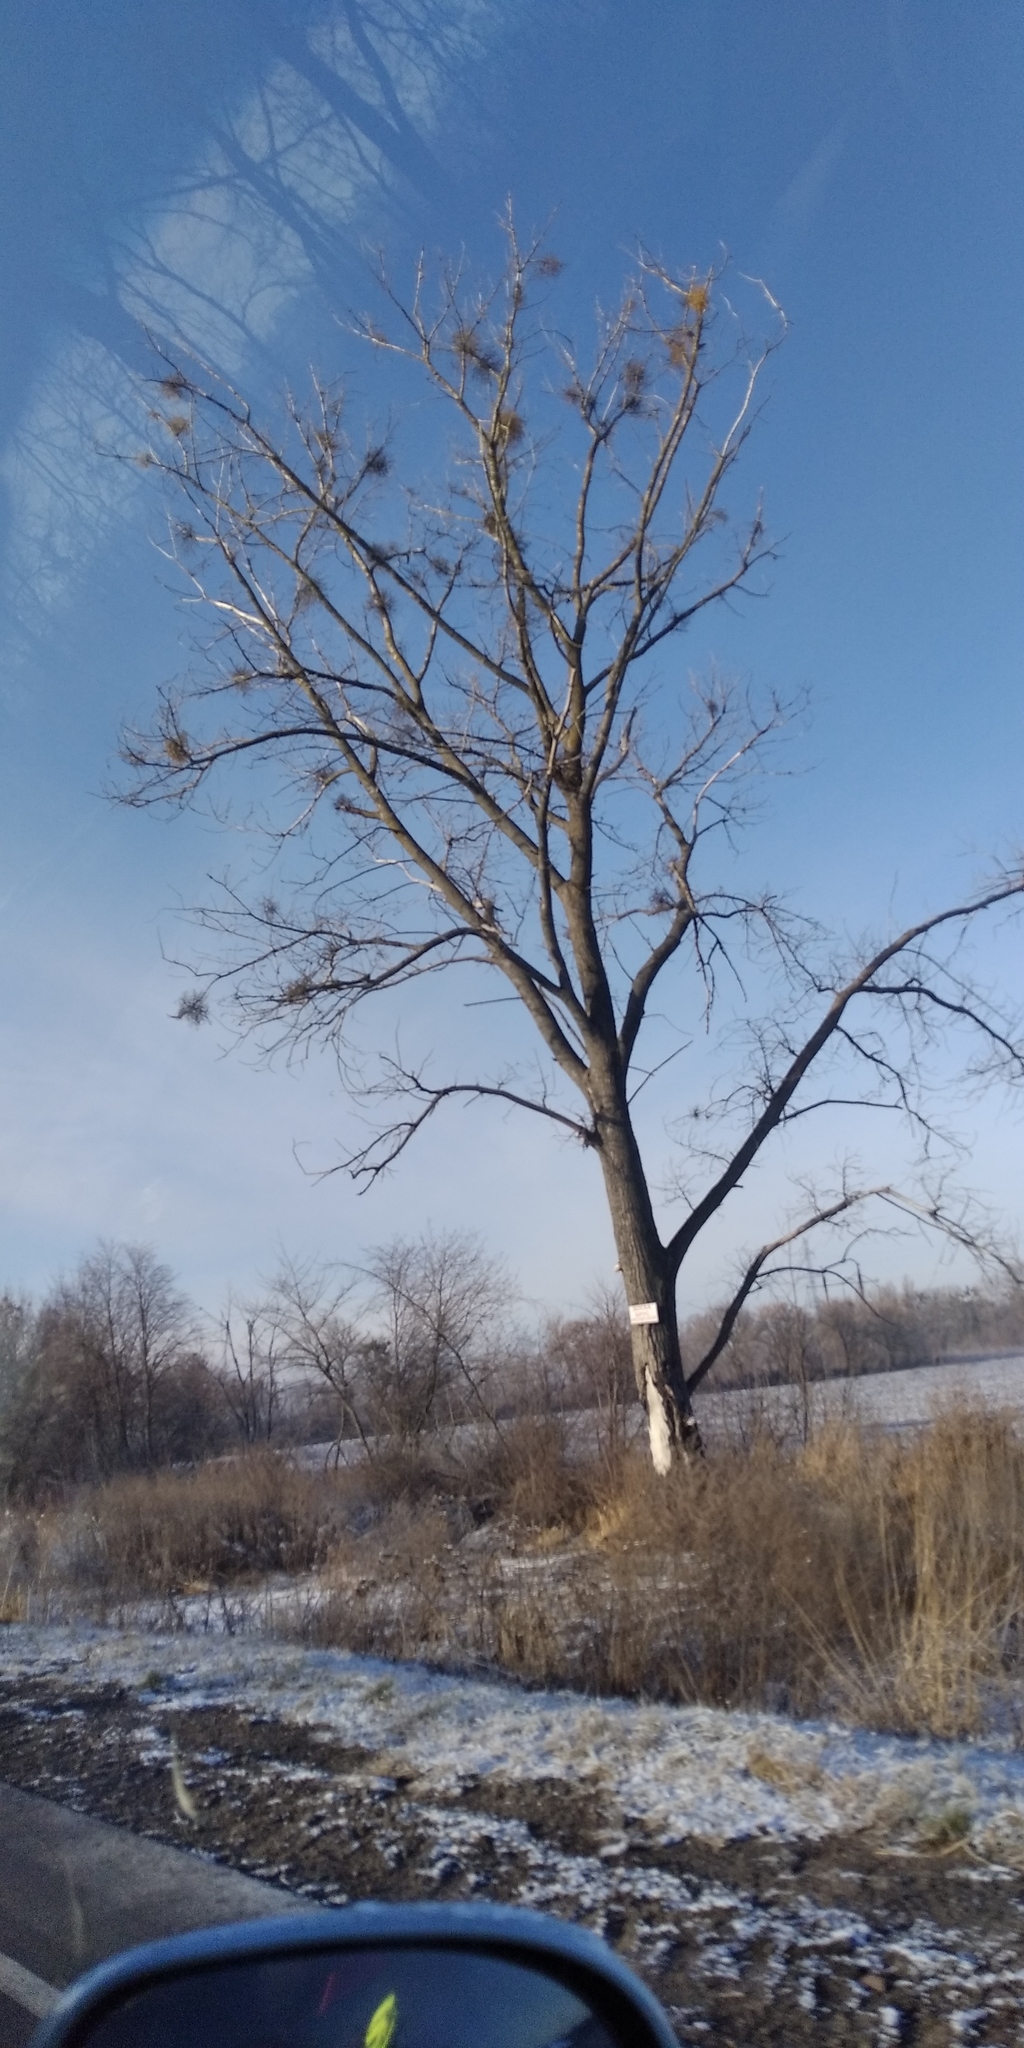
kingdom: Plantae
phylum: Tracheophyta
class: Magnoliopsida
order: Santalales
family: Viscaceae
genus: Viscum
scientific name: Viscum album
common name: Mistletoe
